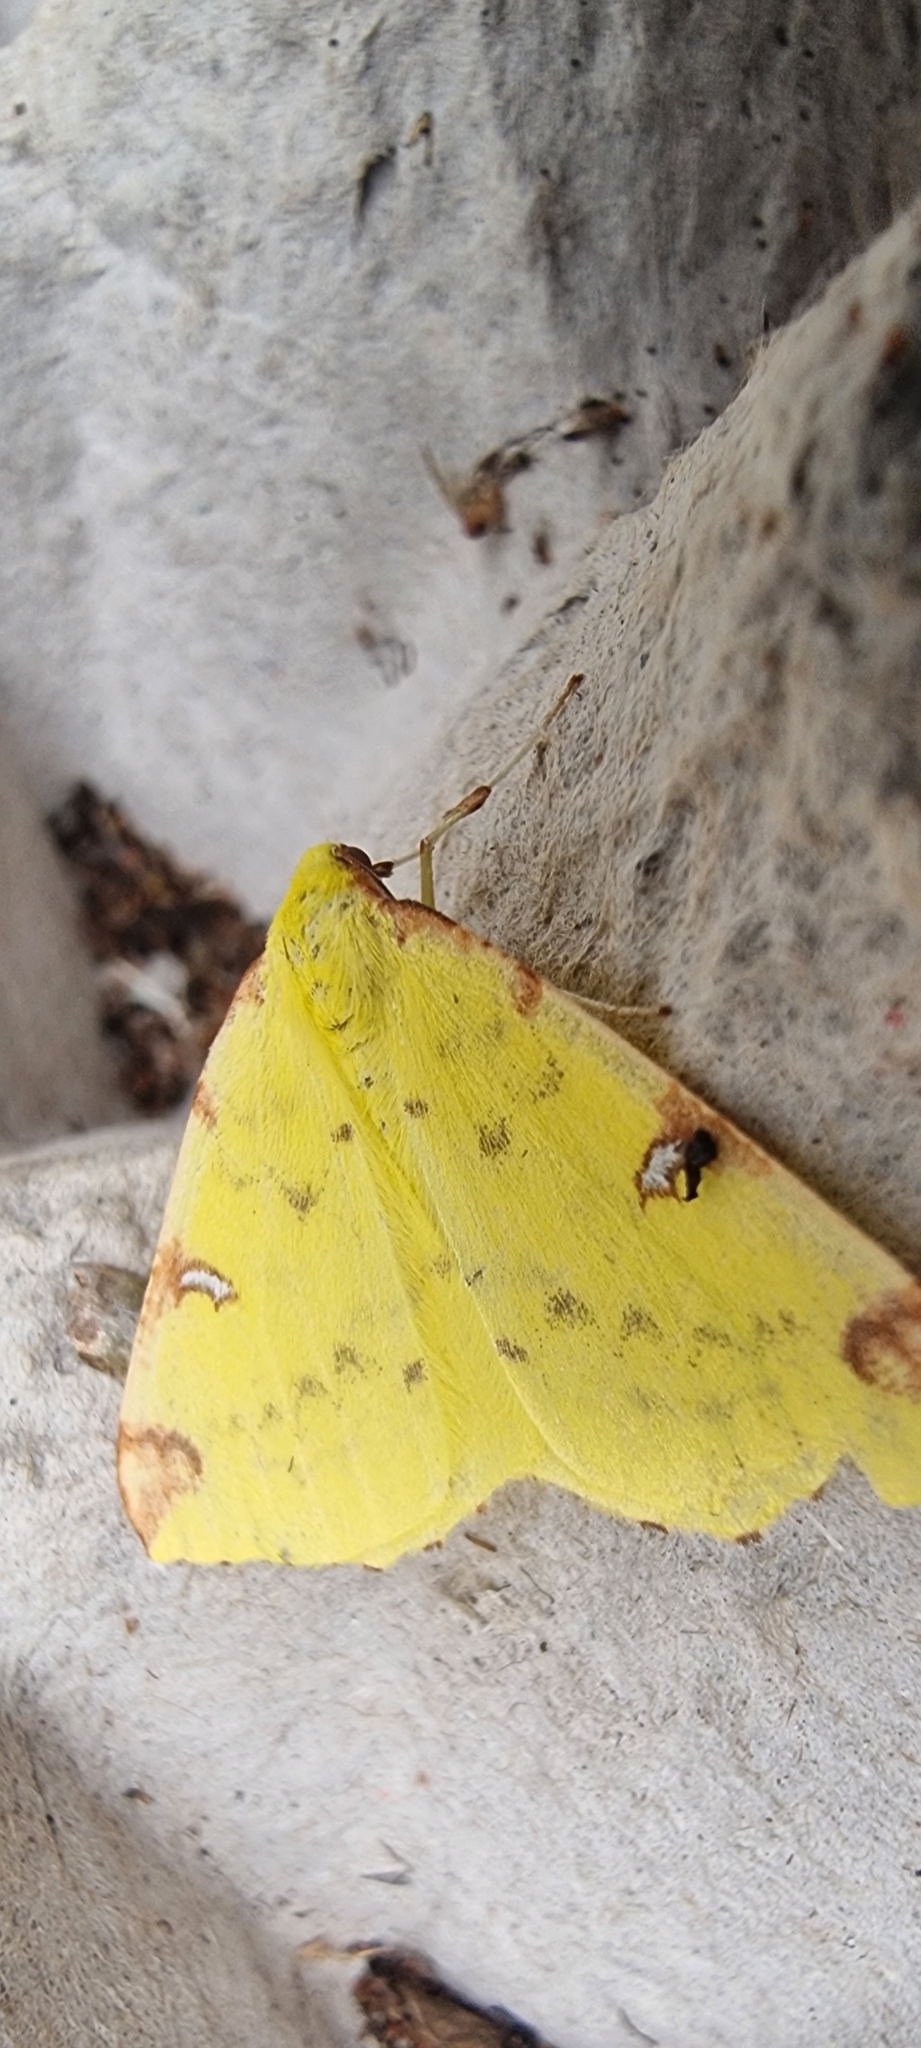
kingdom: Animalia
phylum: Arthropoda
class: Insecta
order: Lepidoptera
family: Geometridae
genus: Opisthograptis
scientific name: Opisthograptis luteolata
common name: Brimstone moth
